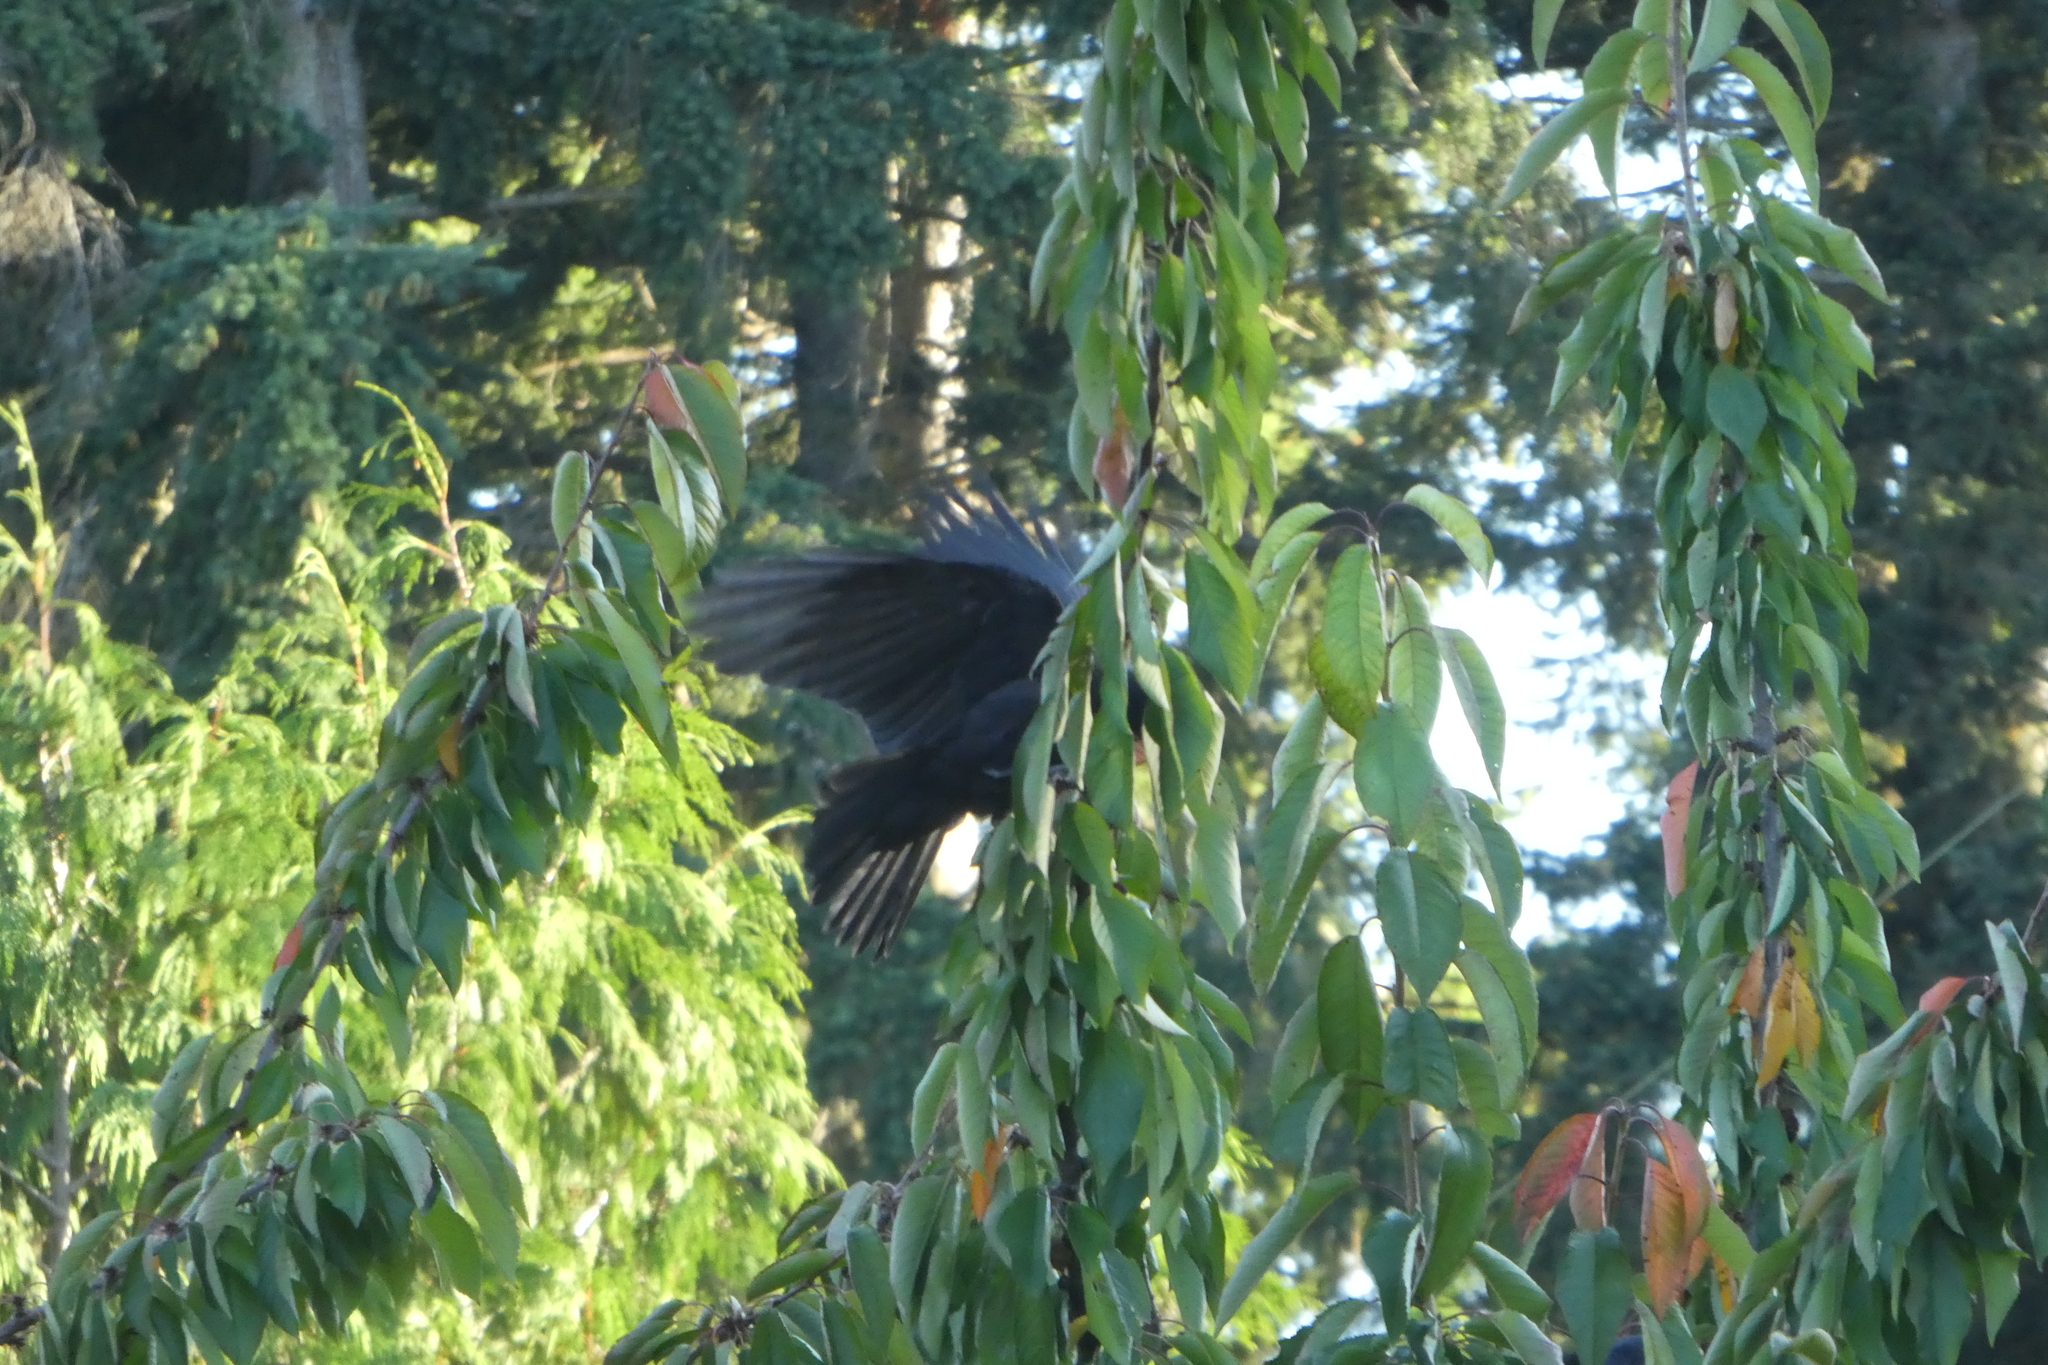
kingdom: Animalia
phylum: Chordata
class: Aves
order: Passeriformes
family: Corvidae
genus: Corvus
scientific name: Corvus brachyrhynchos
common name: American crow
